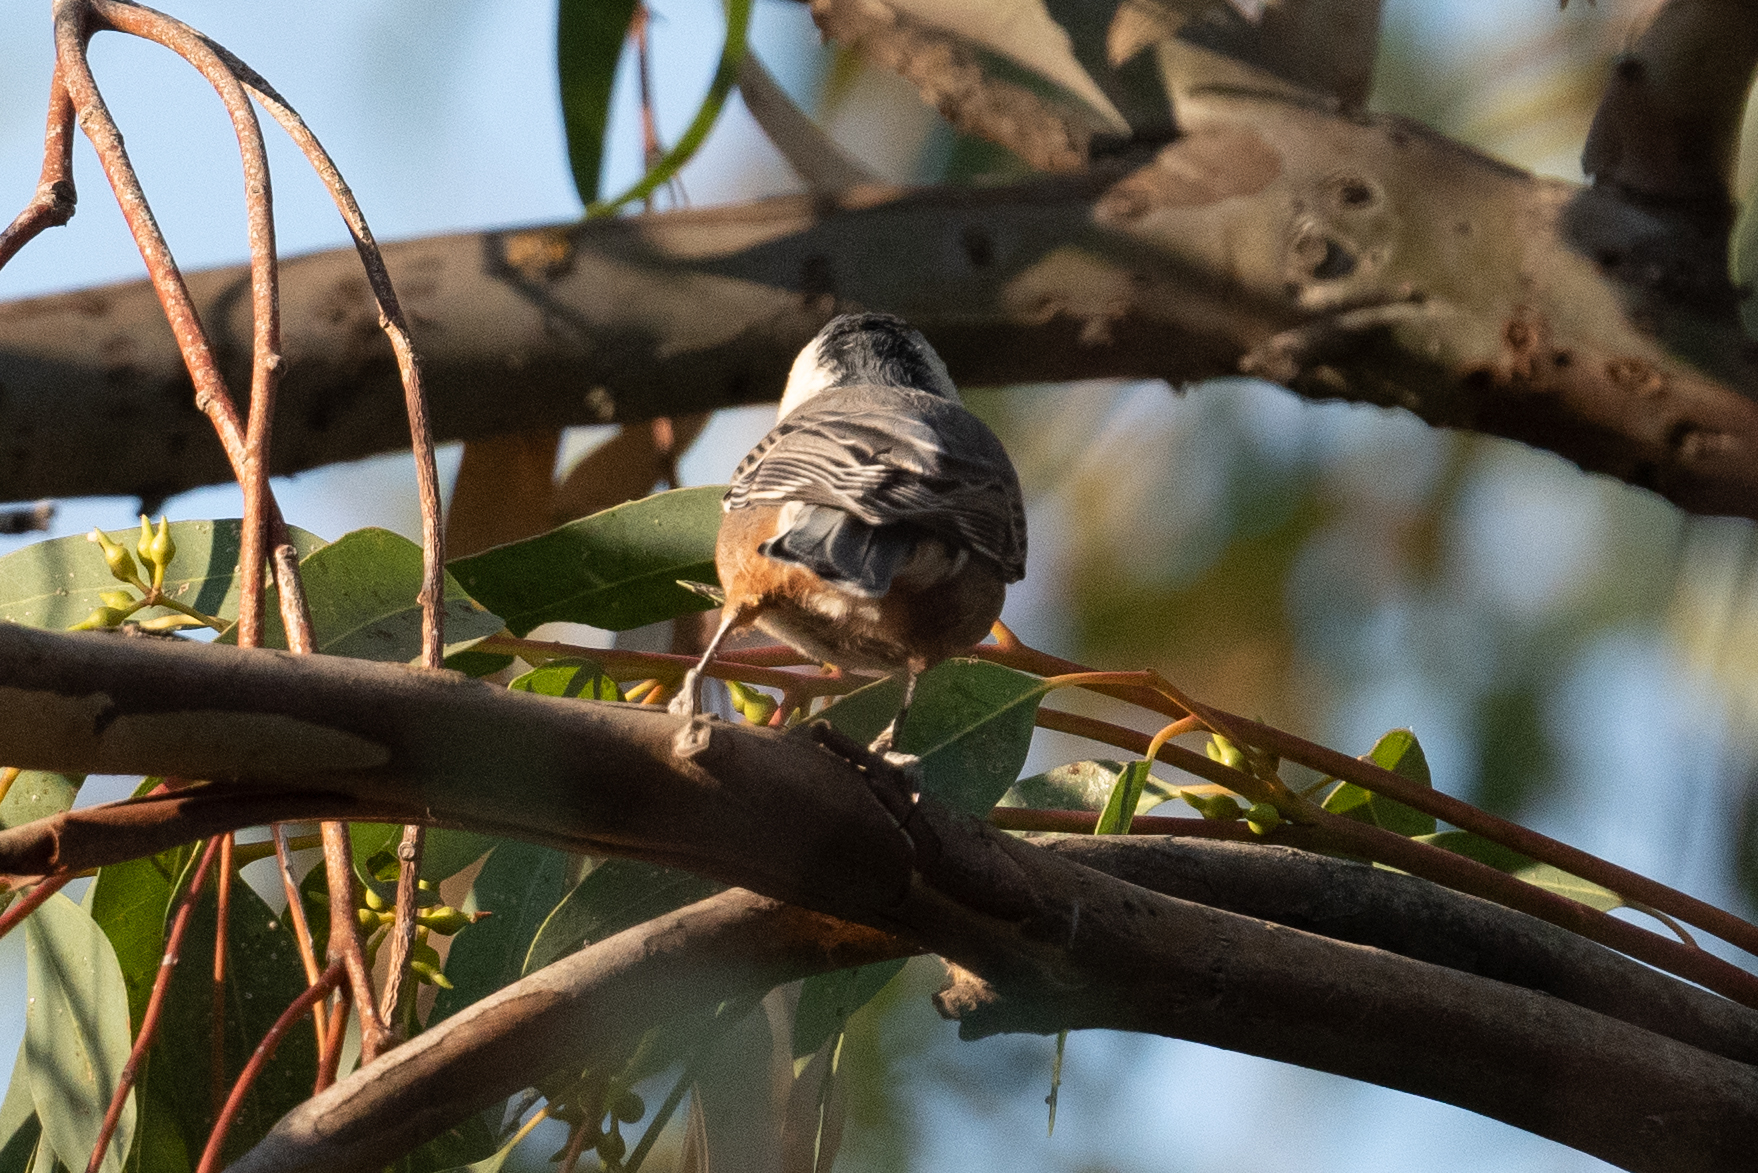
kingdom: Animalia
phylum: Chordata
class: Aves
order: Passeriformes
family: Sittidae
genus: Sitta
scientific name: Sitta carolinensis
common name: White-breasted nuthatch
